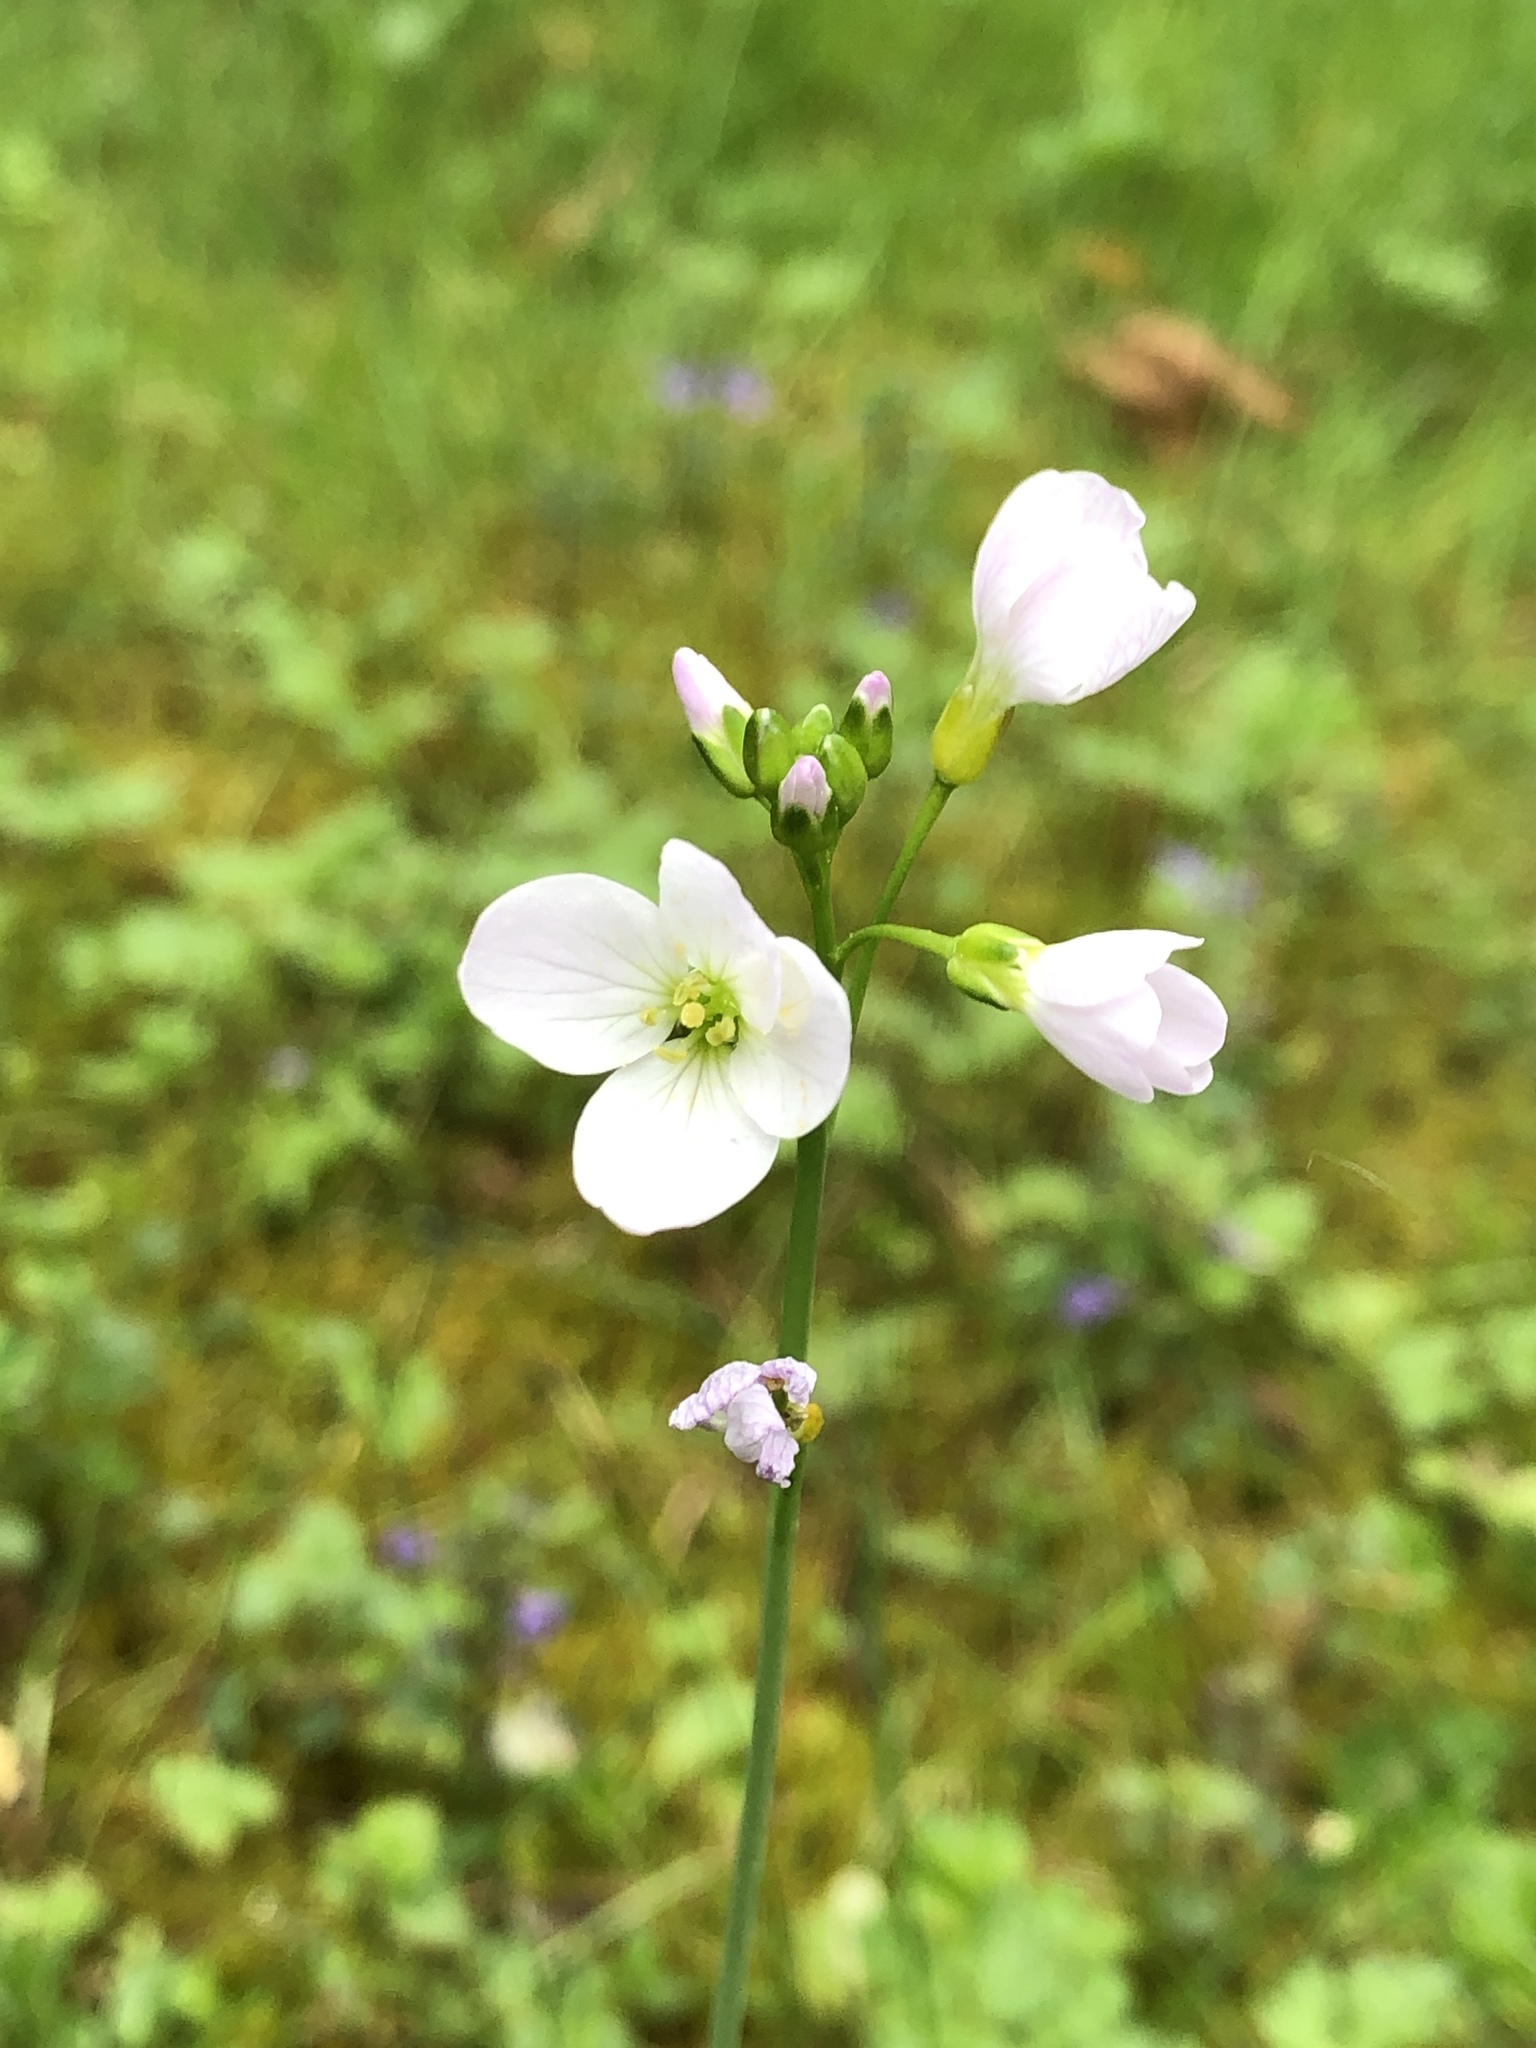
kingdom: Plantae
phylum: Tracheophyta
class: Magnoliopsida
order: Brassicales
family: Brassicaceae
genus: Cardamine
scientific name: Cardamine pratensis
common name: Cuckoo flower
